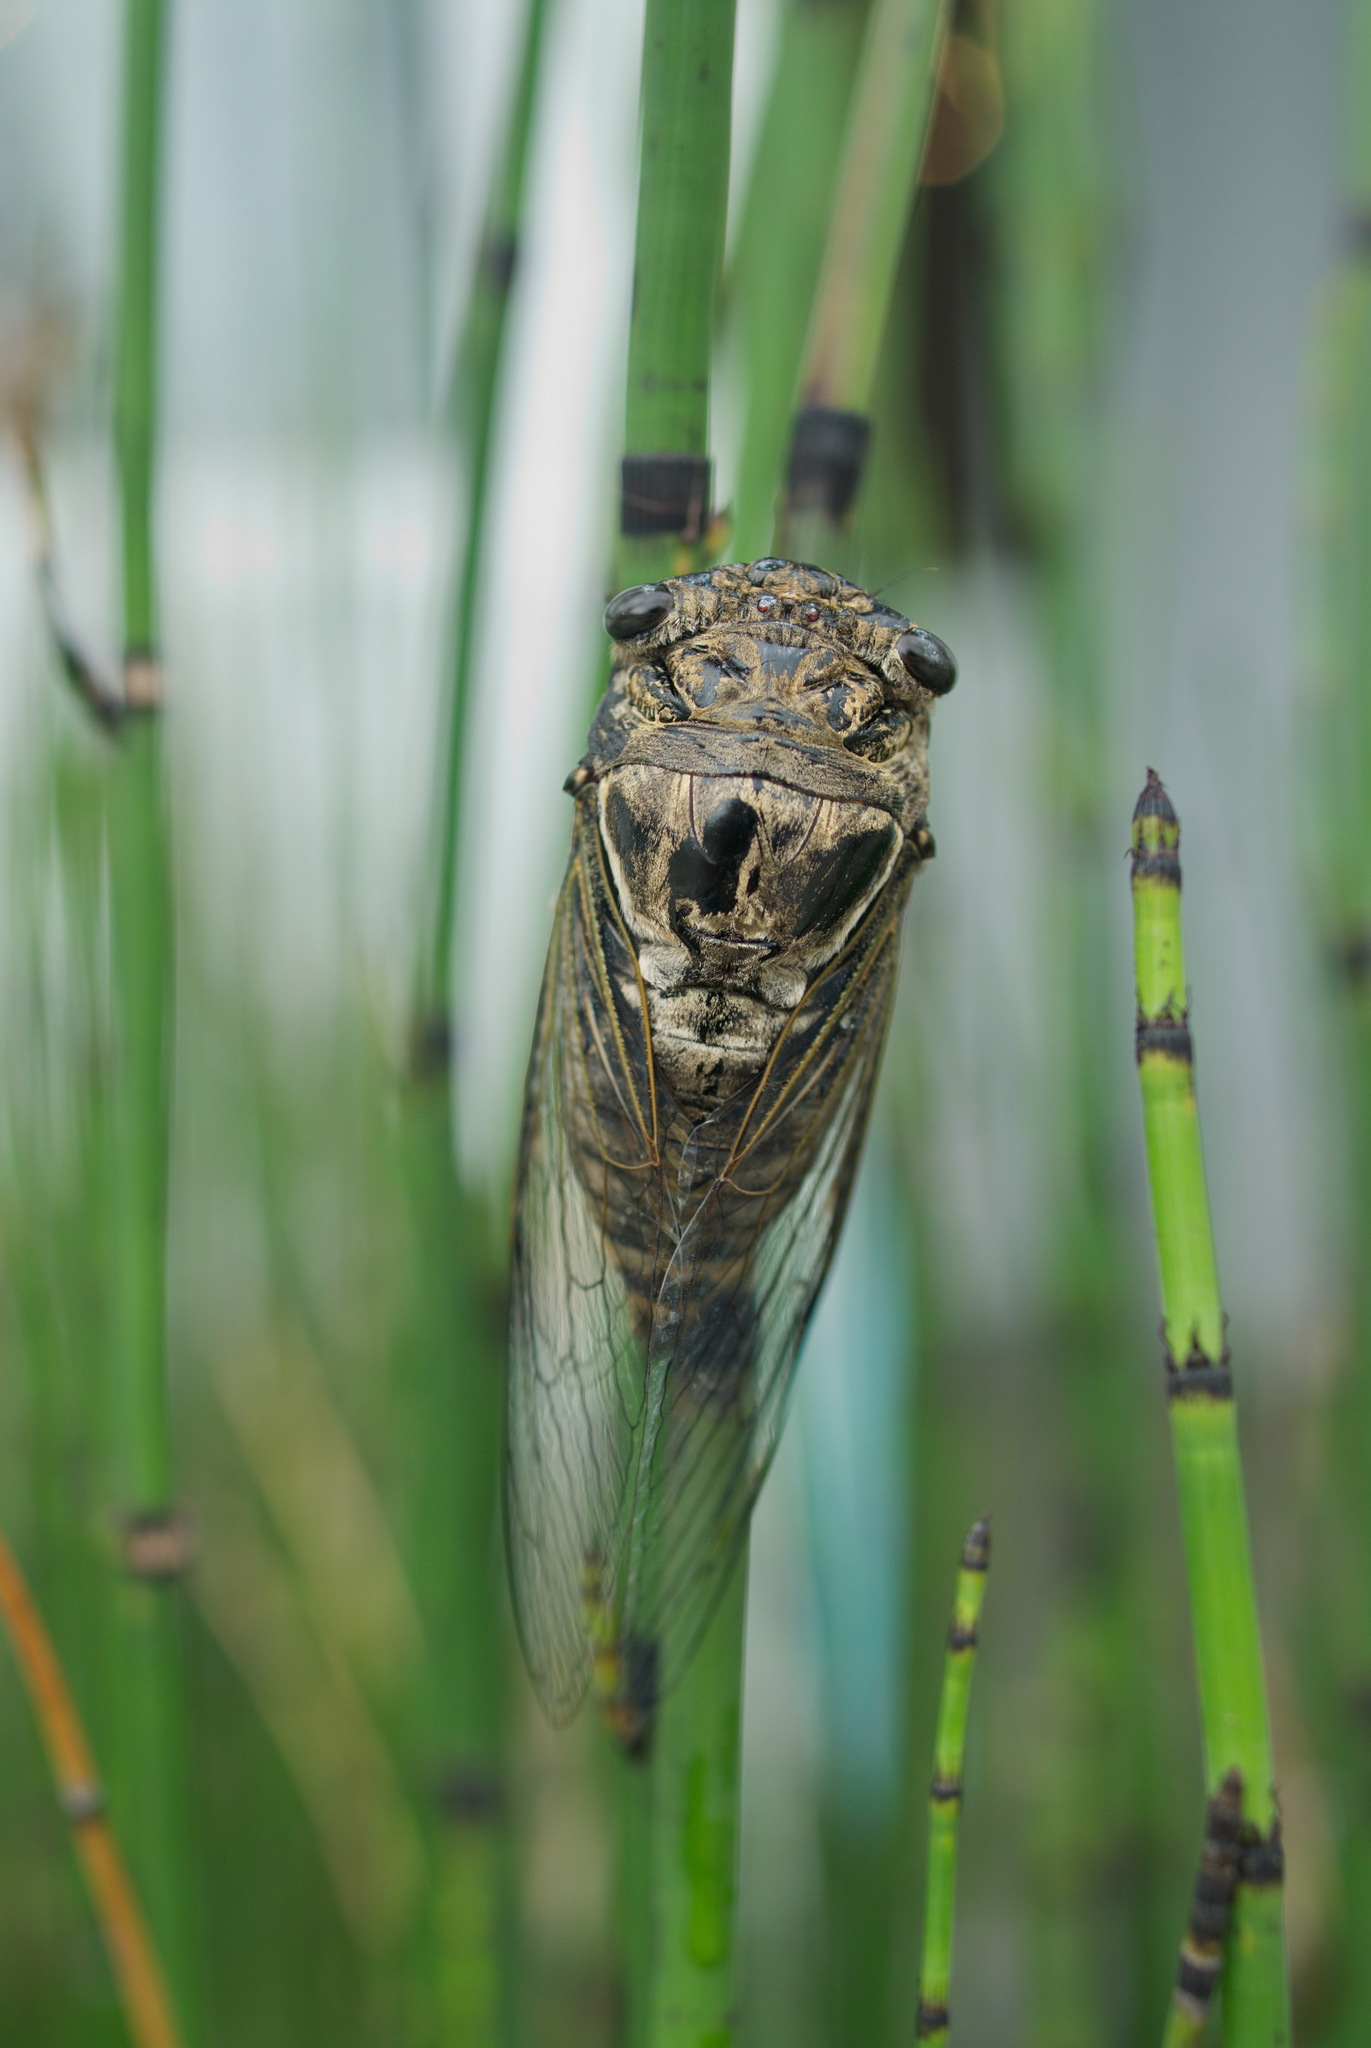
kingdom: Animalia
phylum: Arthropoda
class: Insecta
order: Hemiptera
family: Cicadidae
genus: Cryptotympana
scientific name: Cryptotympana takasagona
